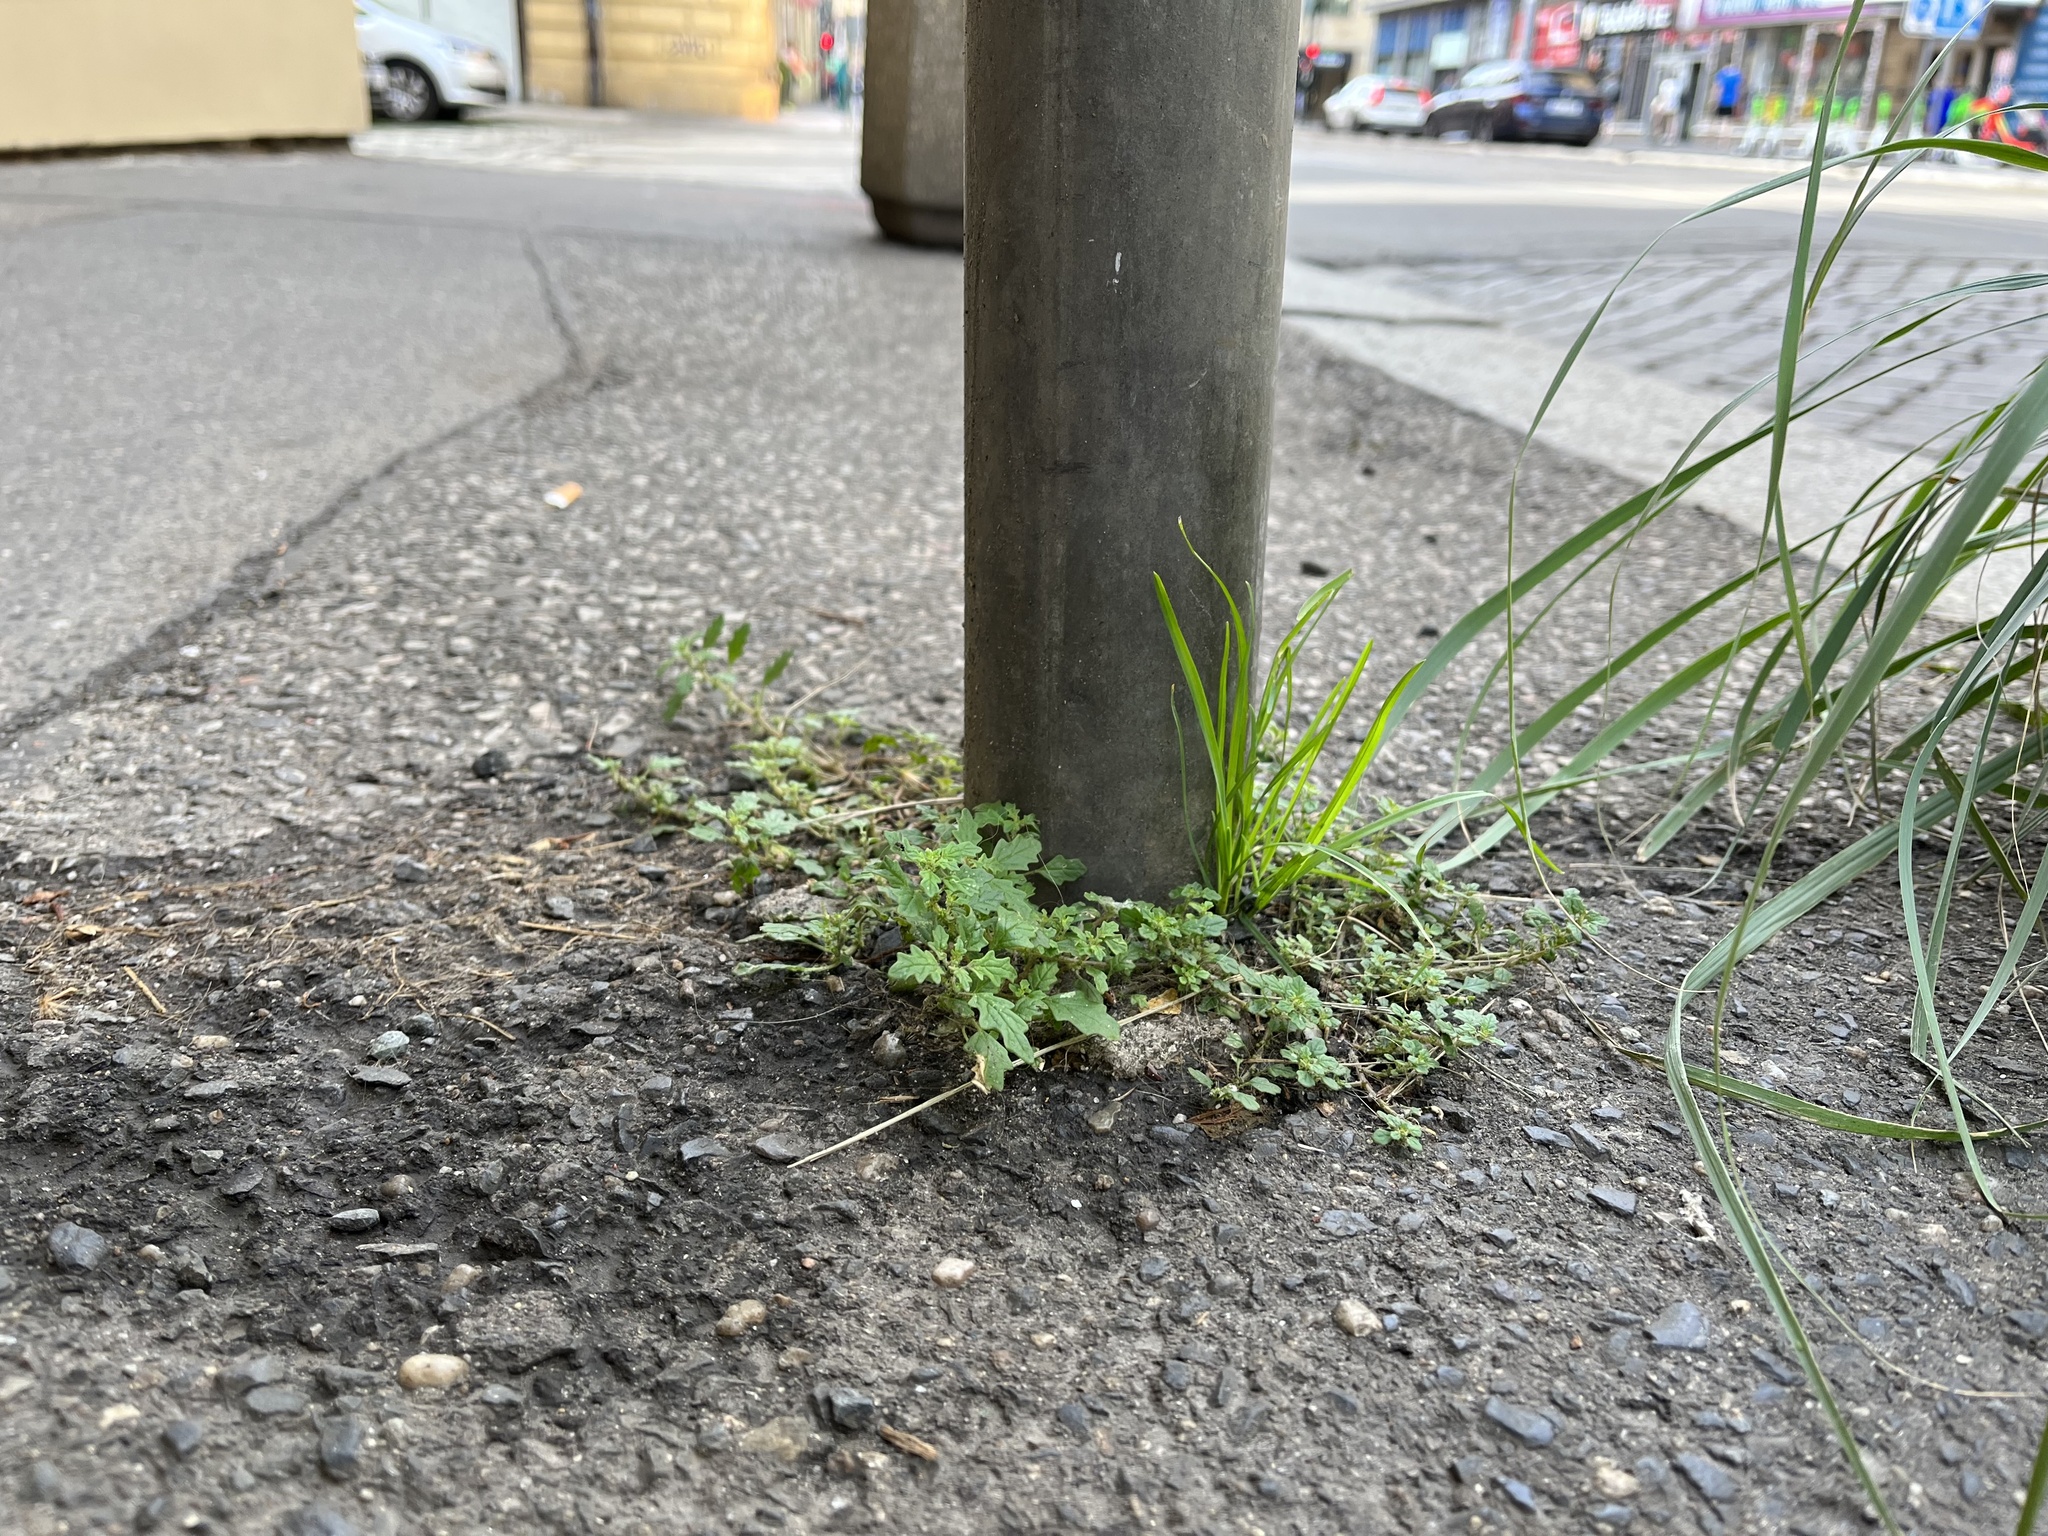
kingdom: Plantae
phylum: Tracheophyta
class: Magnoliopsida
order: Caryophyllales
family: Amaranthaceae
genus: Dysphania
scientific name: Dysphania pumilio
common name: Clammy goosefoot
